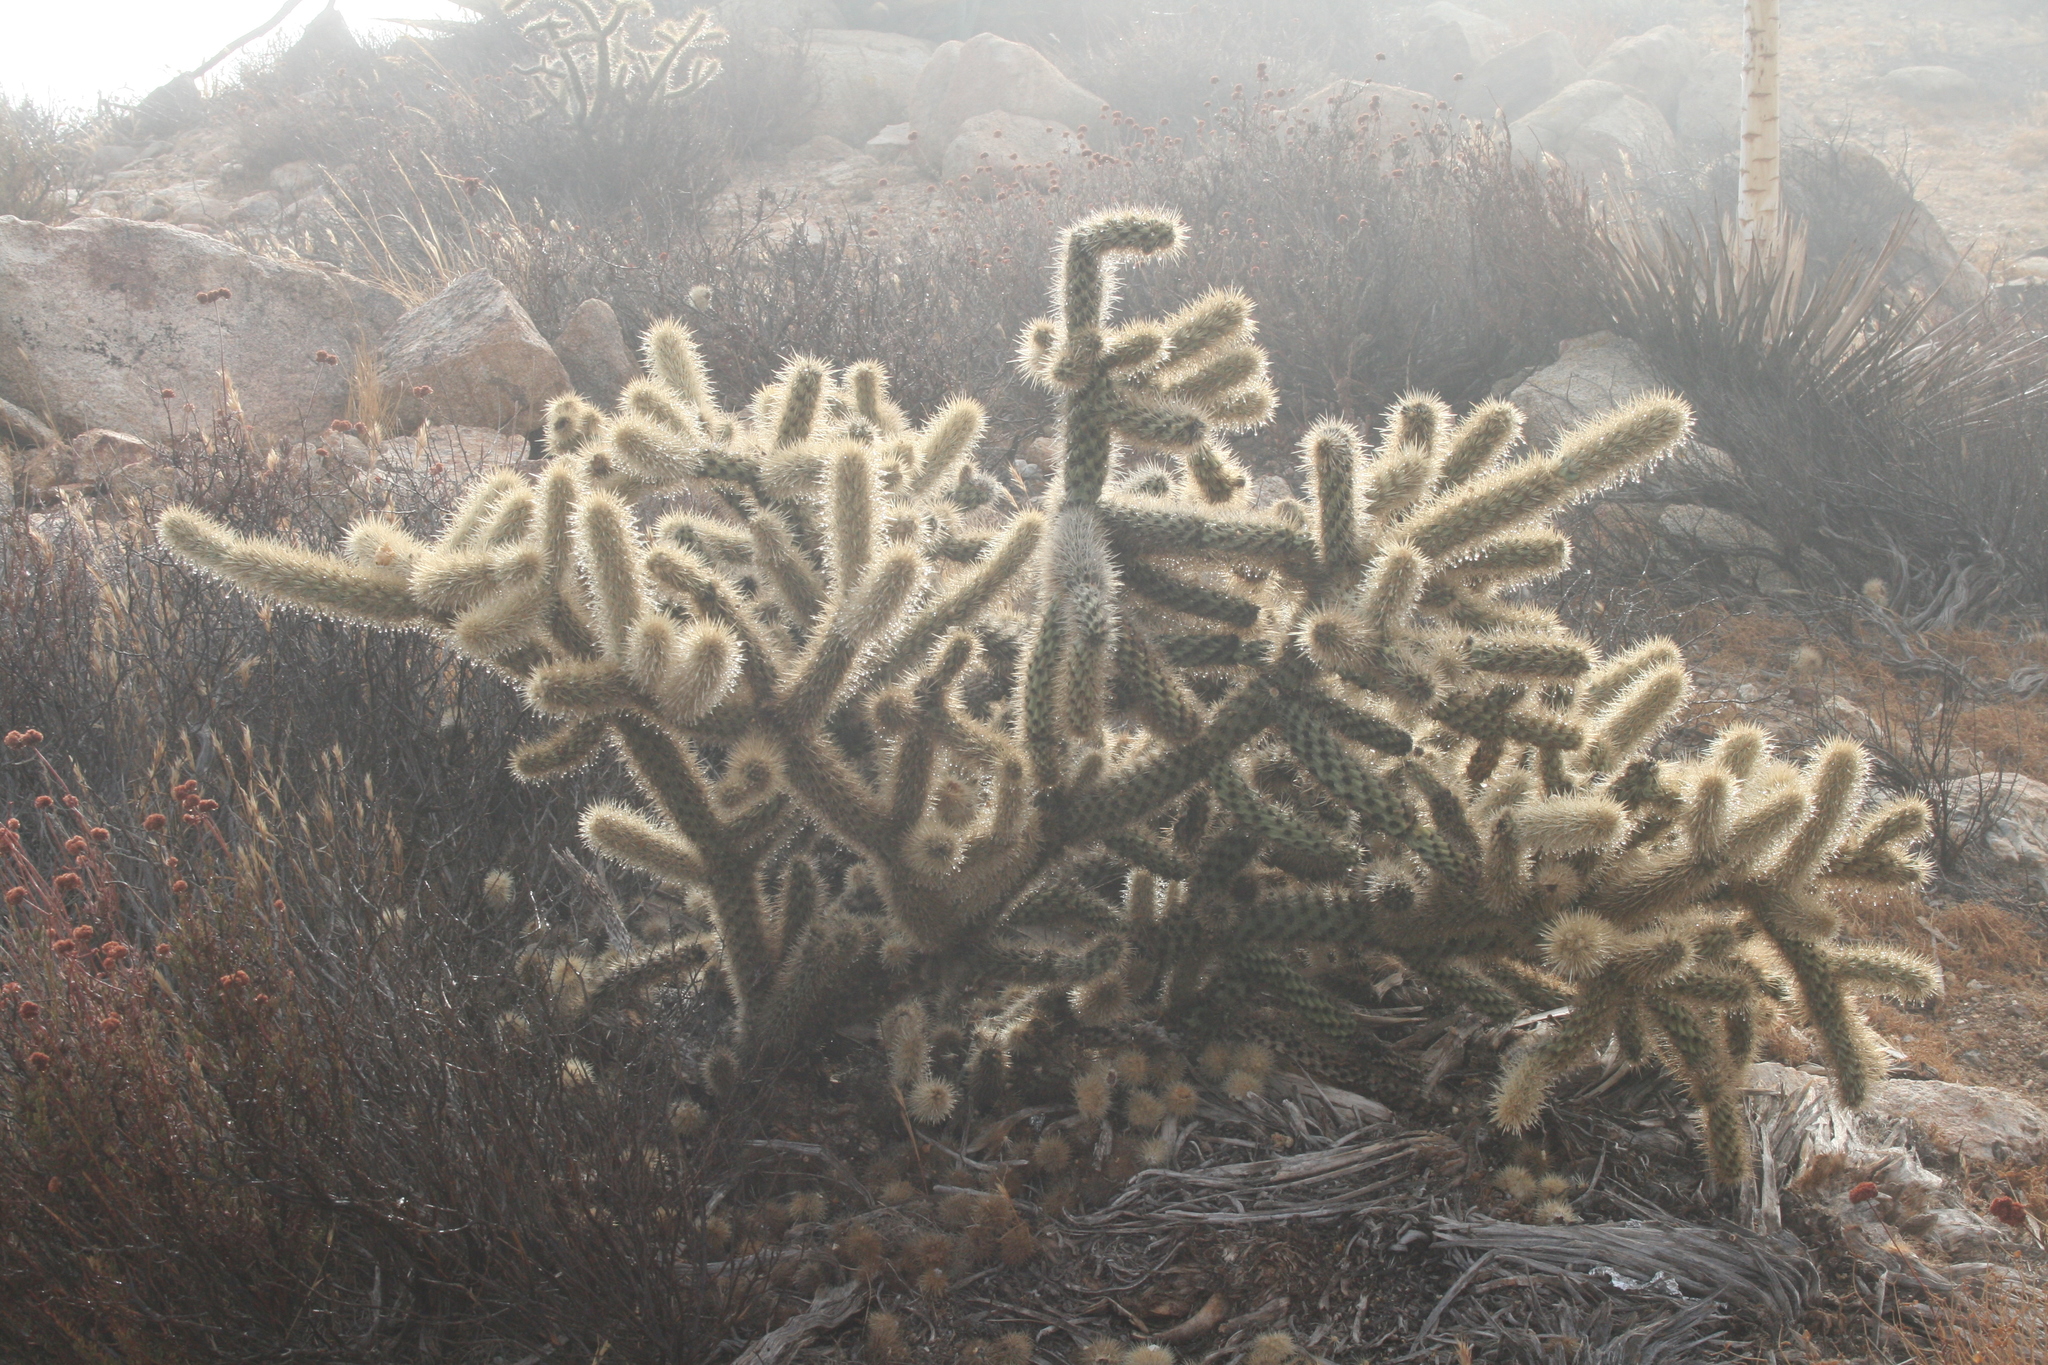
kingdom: Plantae
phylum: Tracheophyta
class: Magnoliopsida
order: Caryophyllales
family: Cactaceae
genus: Cylindropuntia
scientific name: Cylindropuntia wolfii
